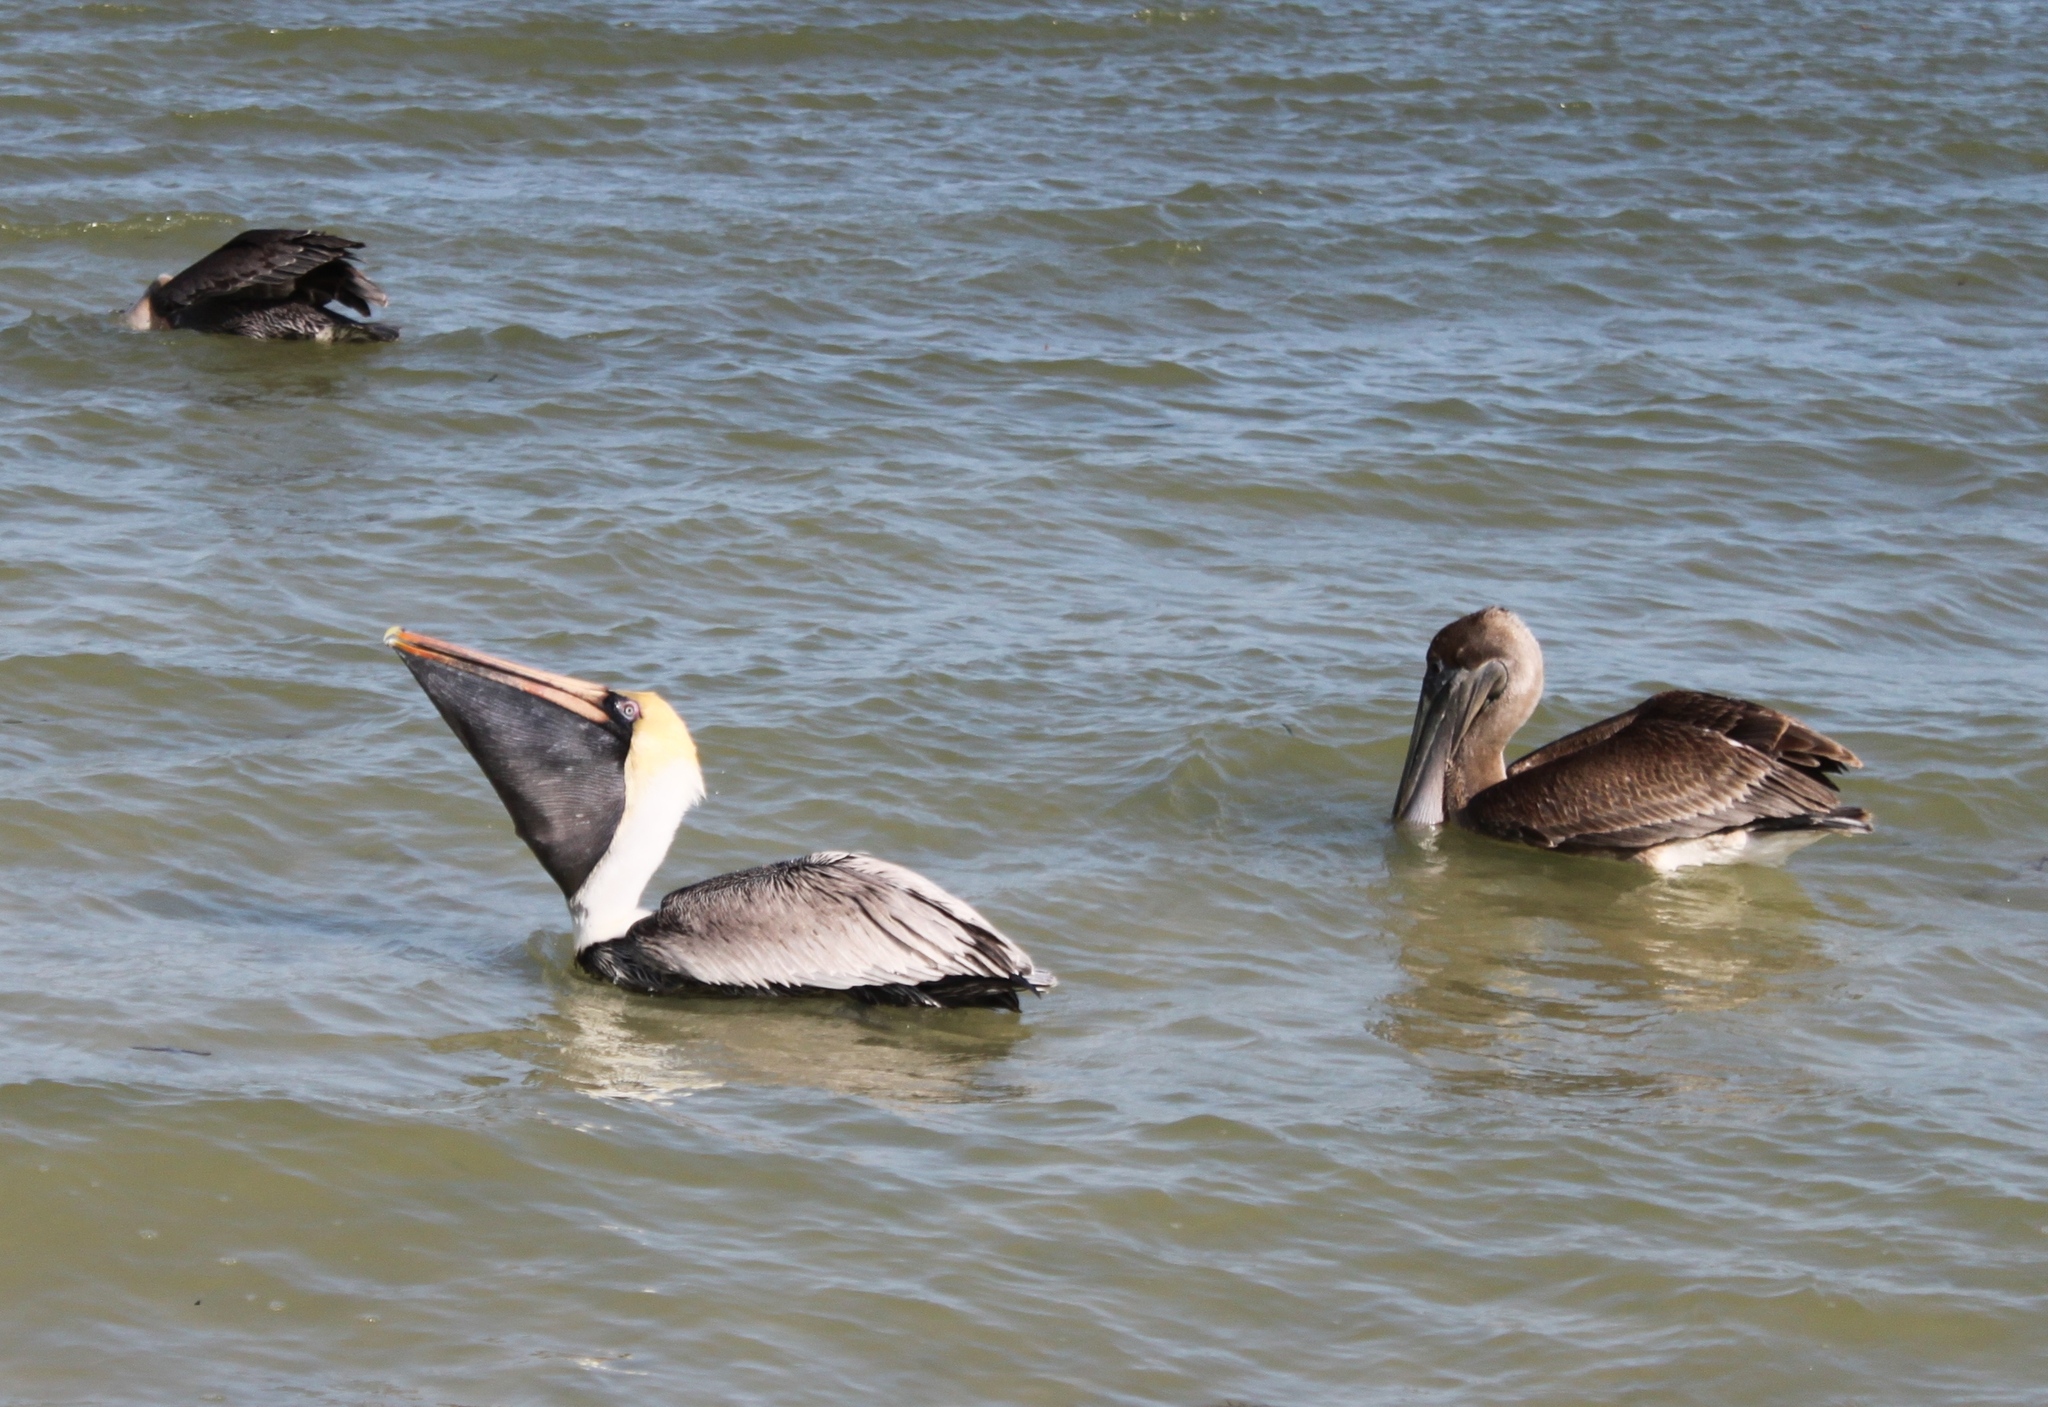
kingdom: Animalia
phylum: Chordata
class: Aves
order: Pelecaniformes
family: Pelecanidae
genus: Pelecanus
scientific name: Pelecanus occidentalis
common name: Brown pelican
